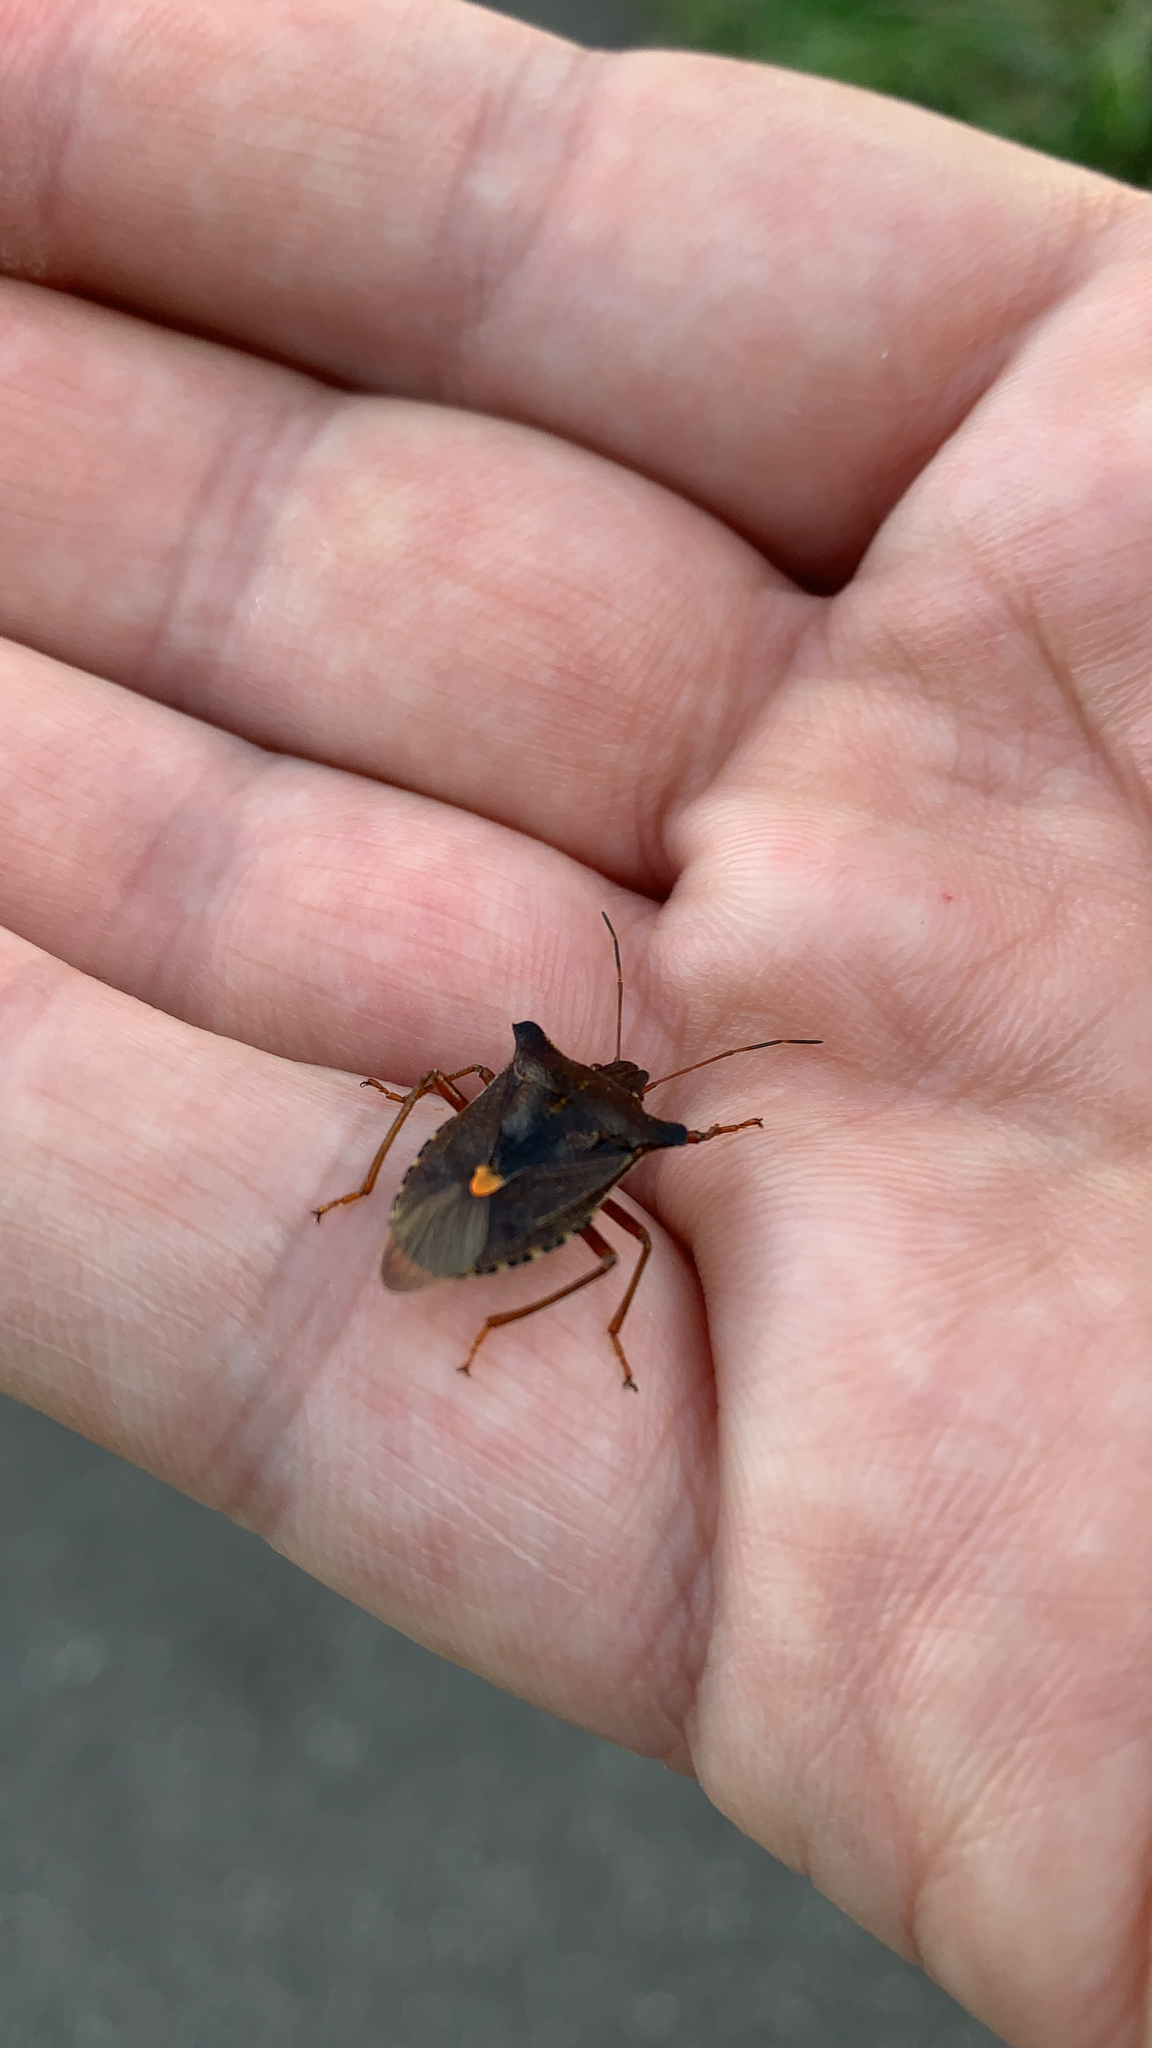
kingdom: Animalia
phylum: Arthropoda
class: Insecta
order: Hemiptera
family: Pentatomidae
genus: Pentatoma
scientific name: Pentatoma rufipes
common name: Forest bug
